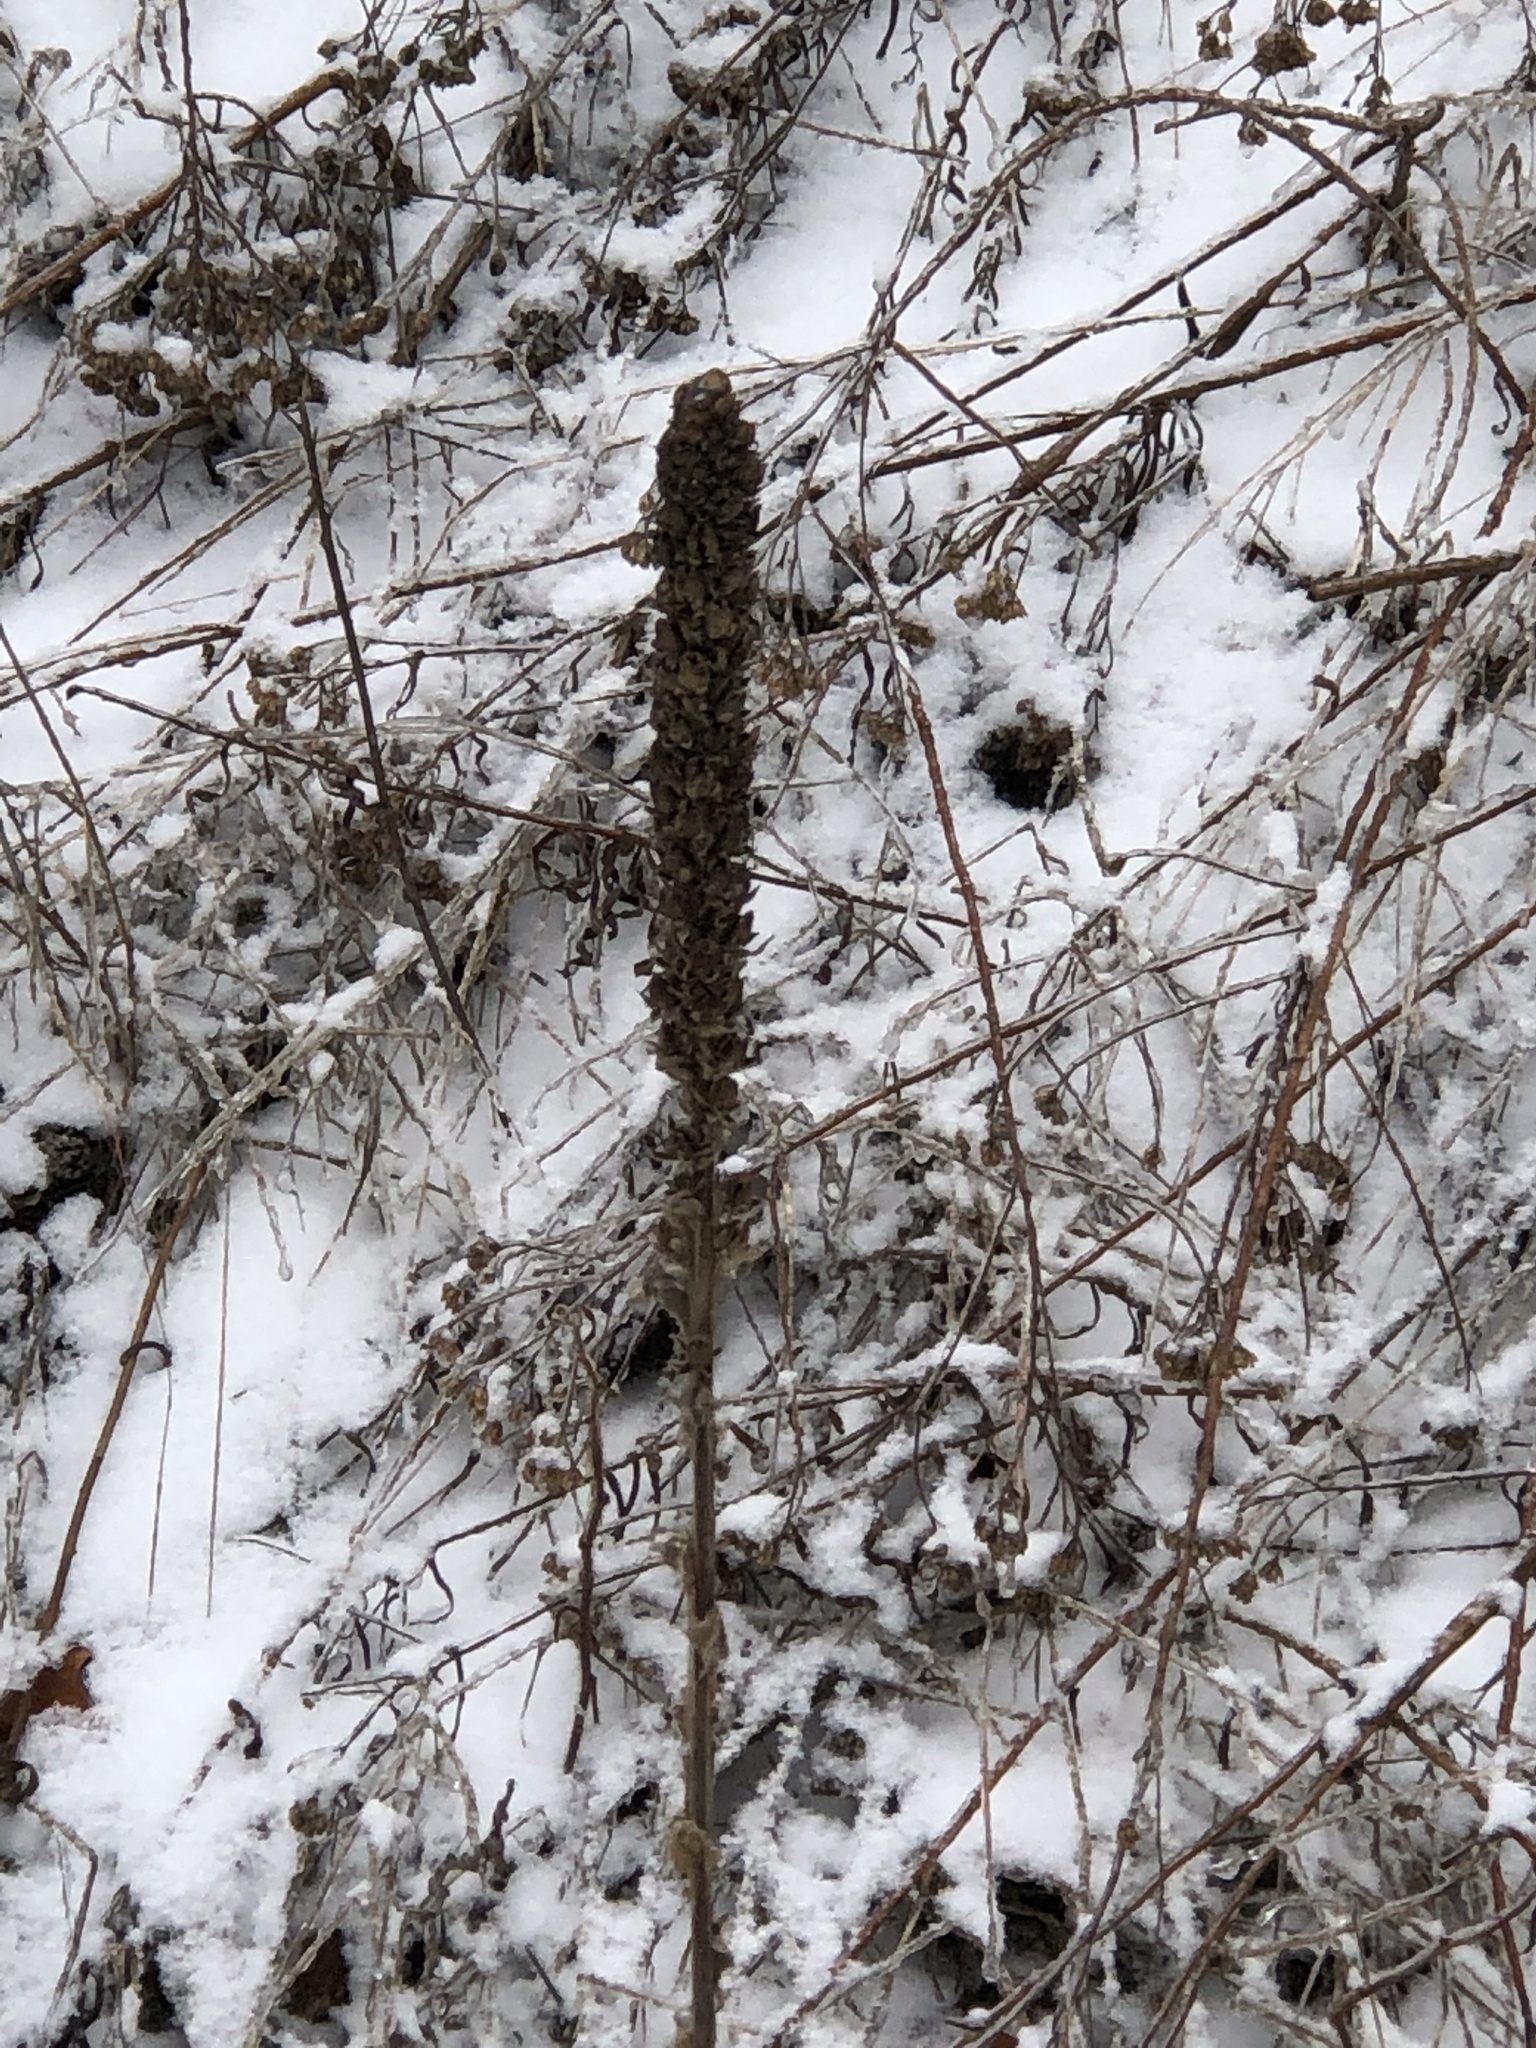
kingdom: Plantae
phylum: Tracheophyta
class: Magnoliopsida
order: Lamiales
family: Scrophulariaceae
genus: Verbascum
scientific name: Verbascum thapsus
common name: Common mullein
